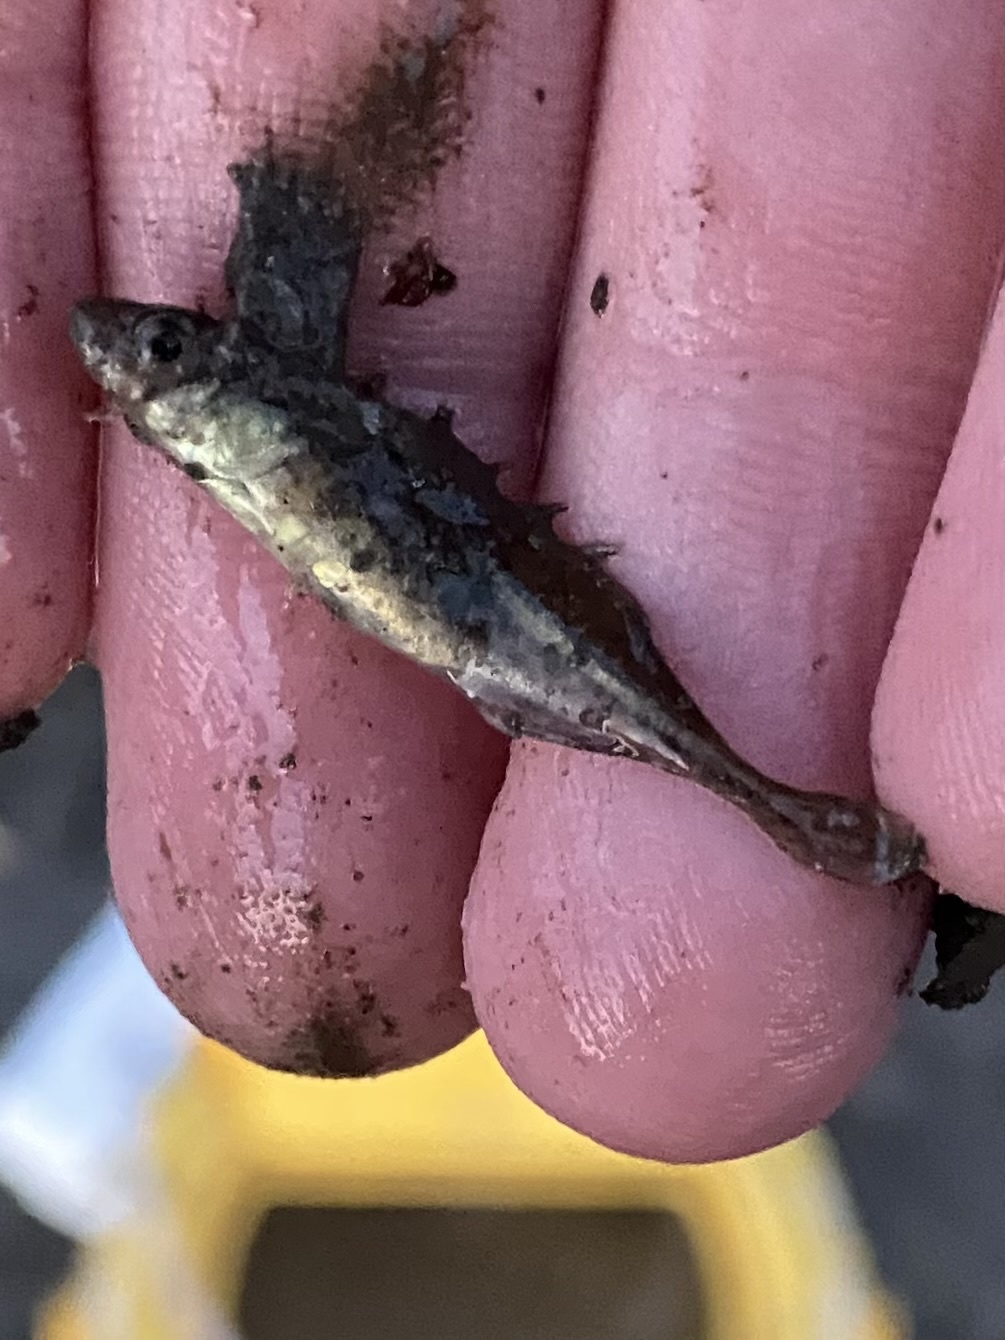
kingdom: Animalia
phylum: Chordata
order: Gasterosteiformes
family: Gasterosteidae
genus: Culaea
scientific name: Culaea inconstans
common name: Brook stickleback
